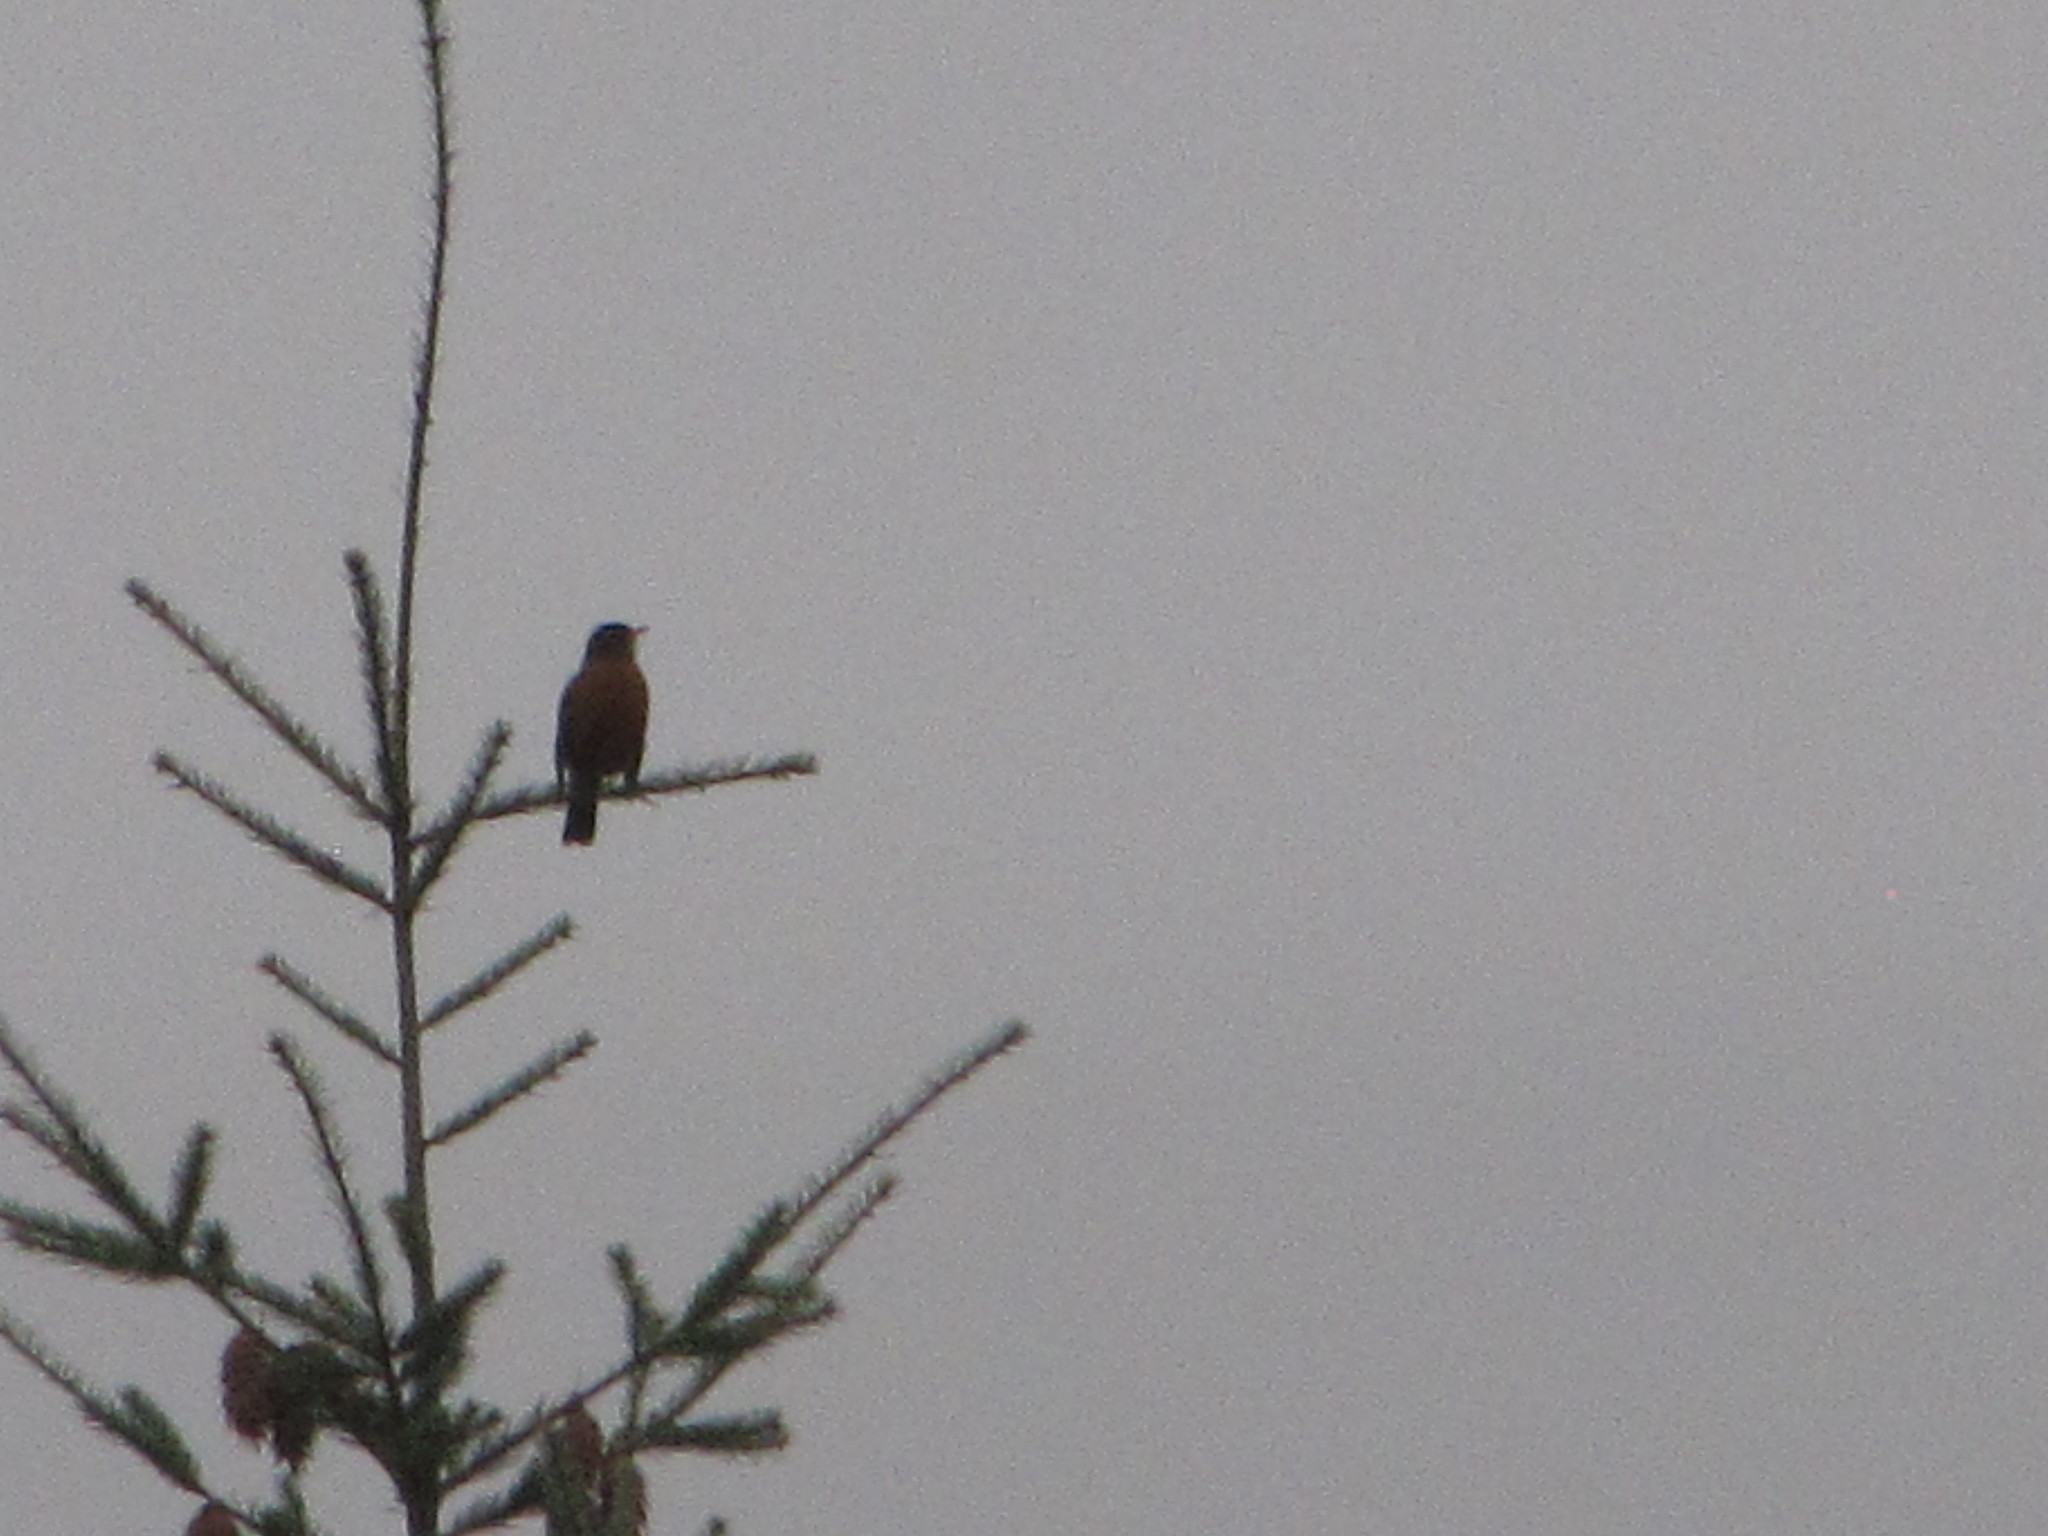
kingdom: Animalia
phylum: Chordata
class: Aves
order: Passeriformes
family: Turdidae
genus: Turdus
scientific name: Turdus migratorius
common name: American robin
